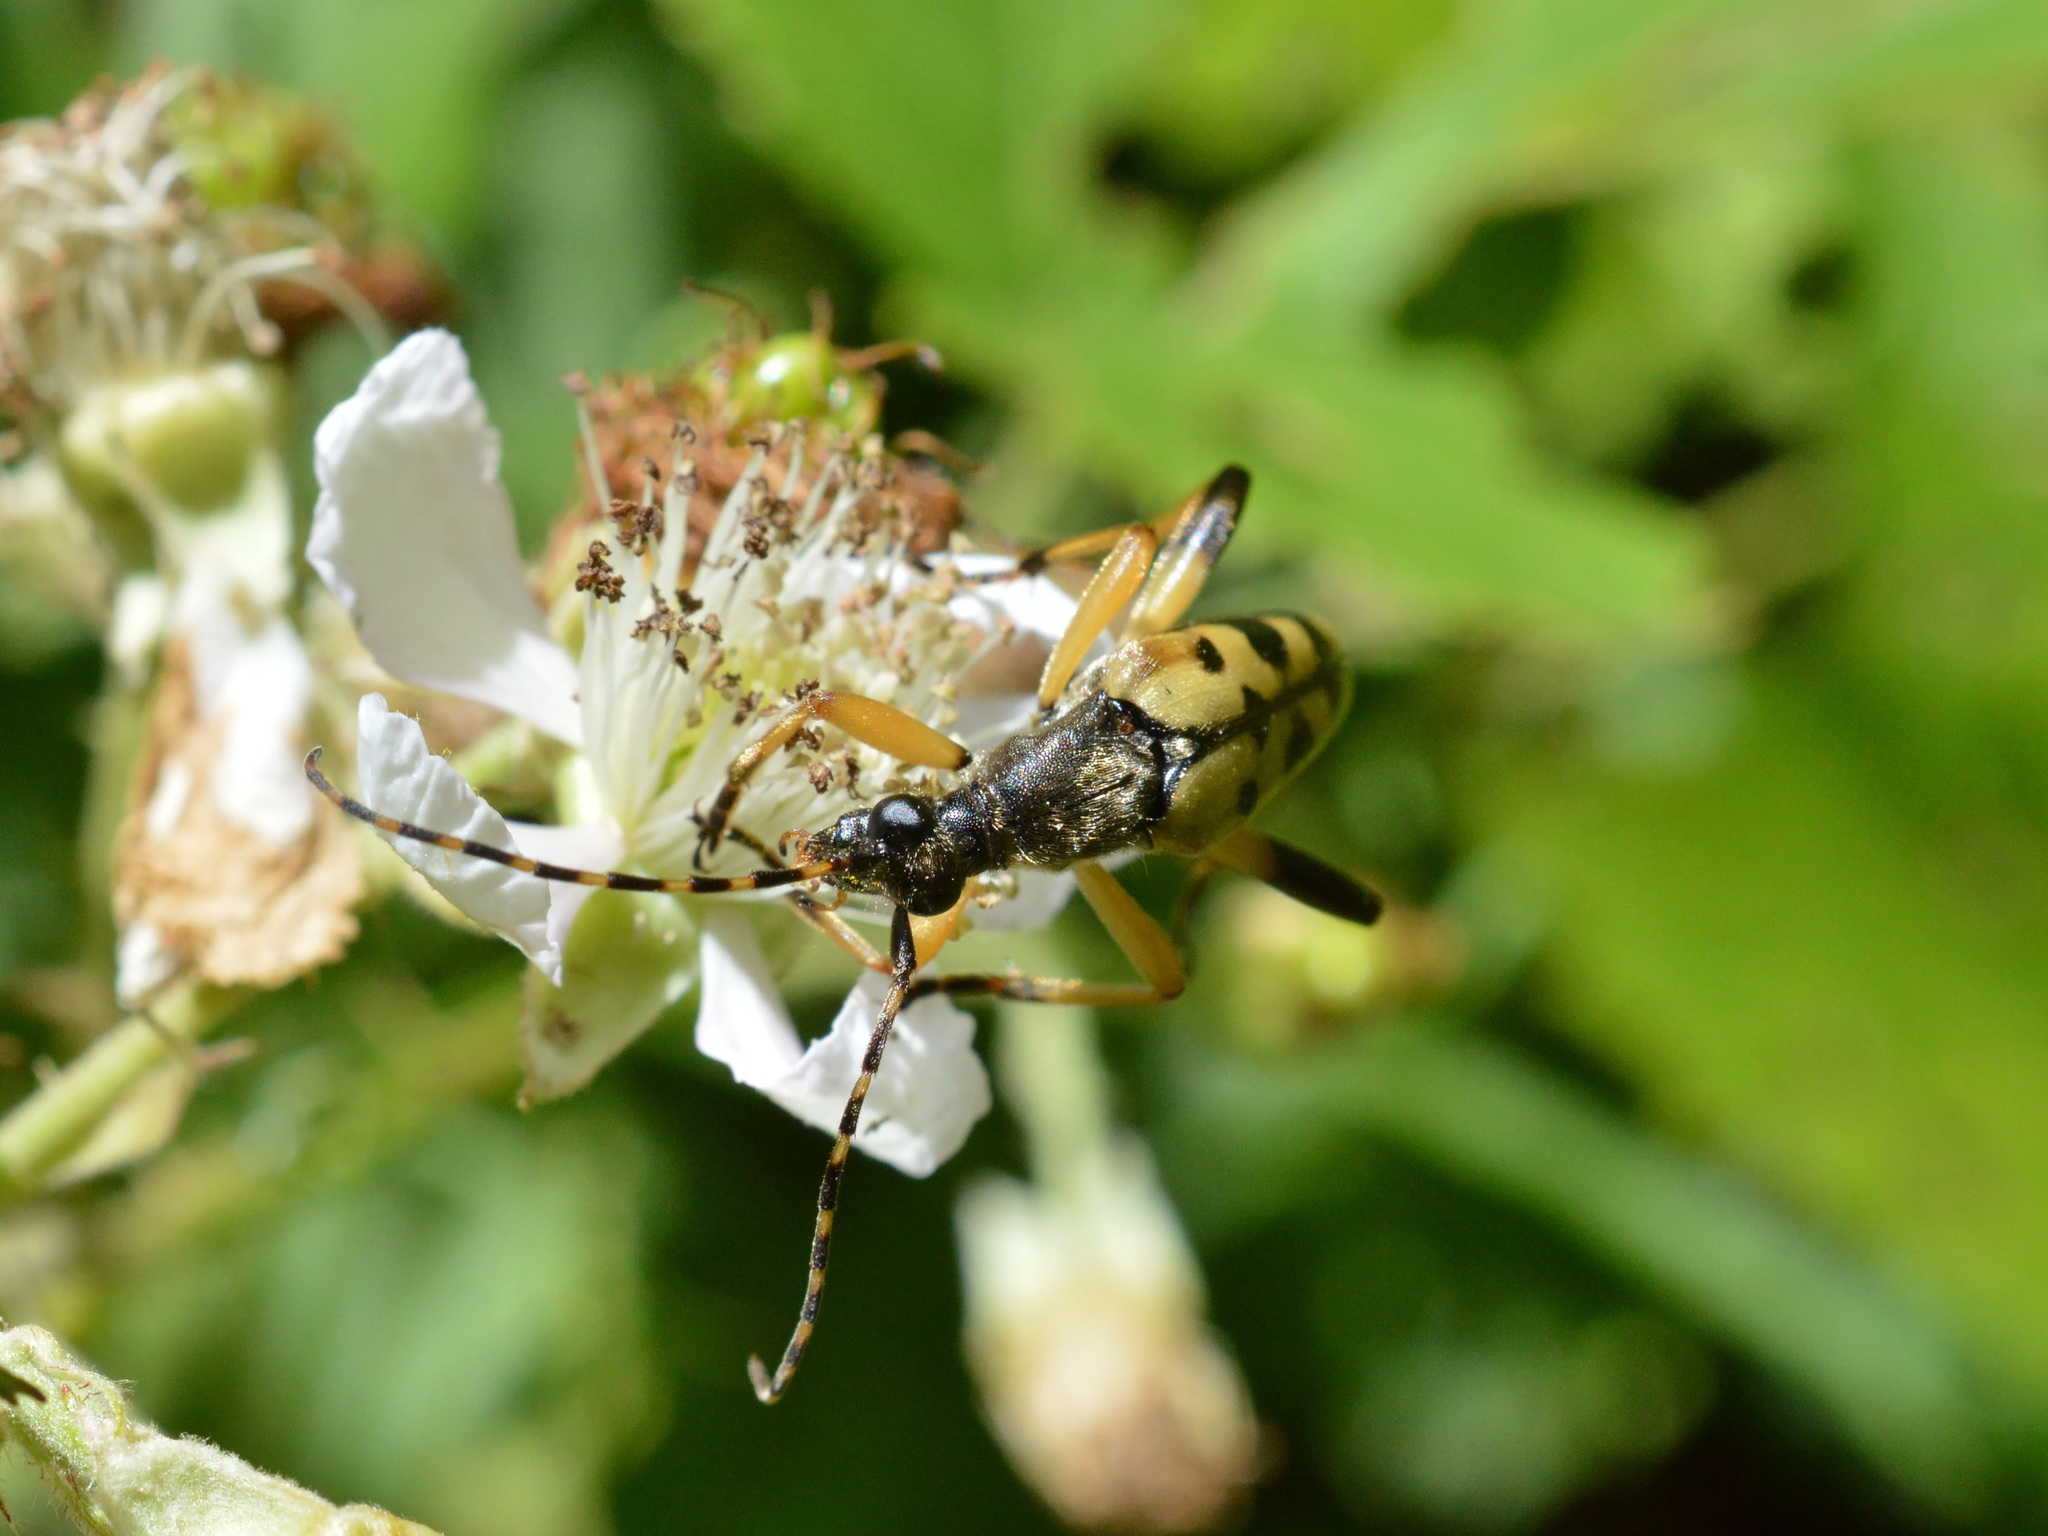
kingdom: Animalia
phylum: Arthropoda
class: Insecta
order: Coleoptera
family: Cerambycidae
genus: Rutpela
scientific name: Rutpela maculata
